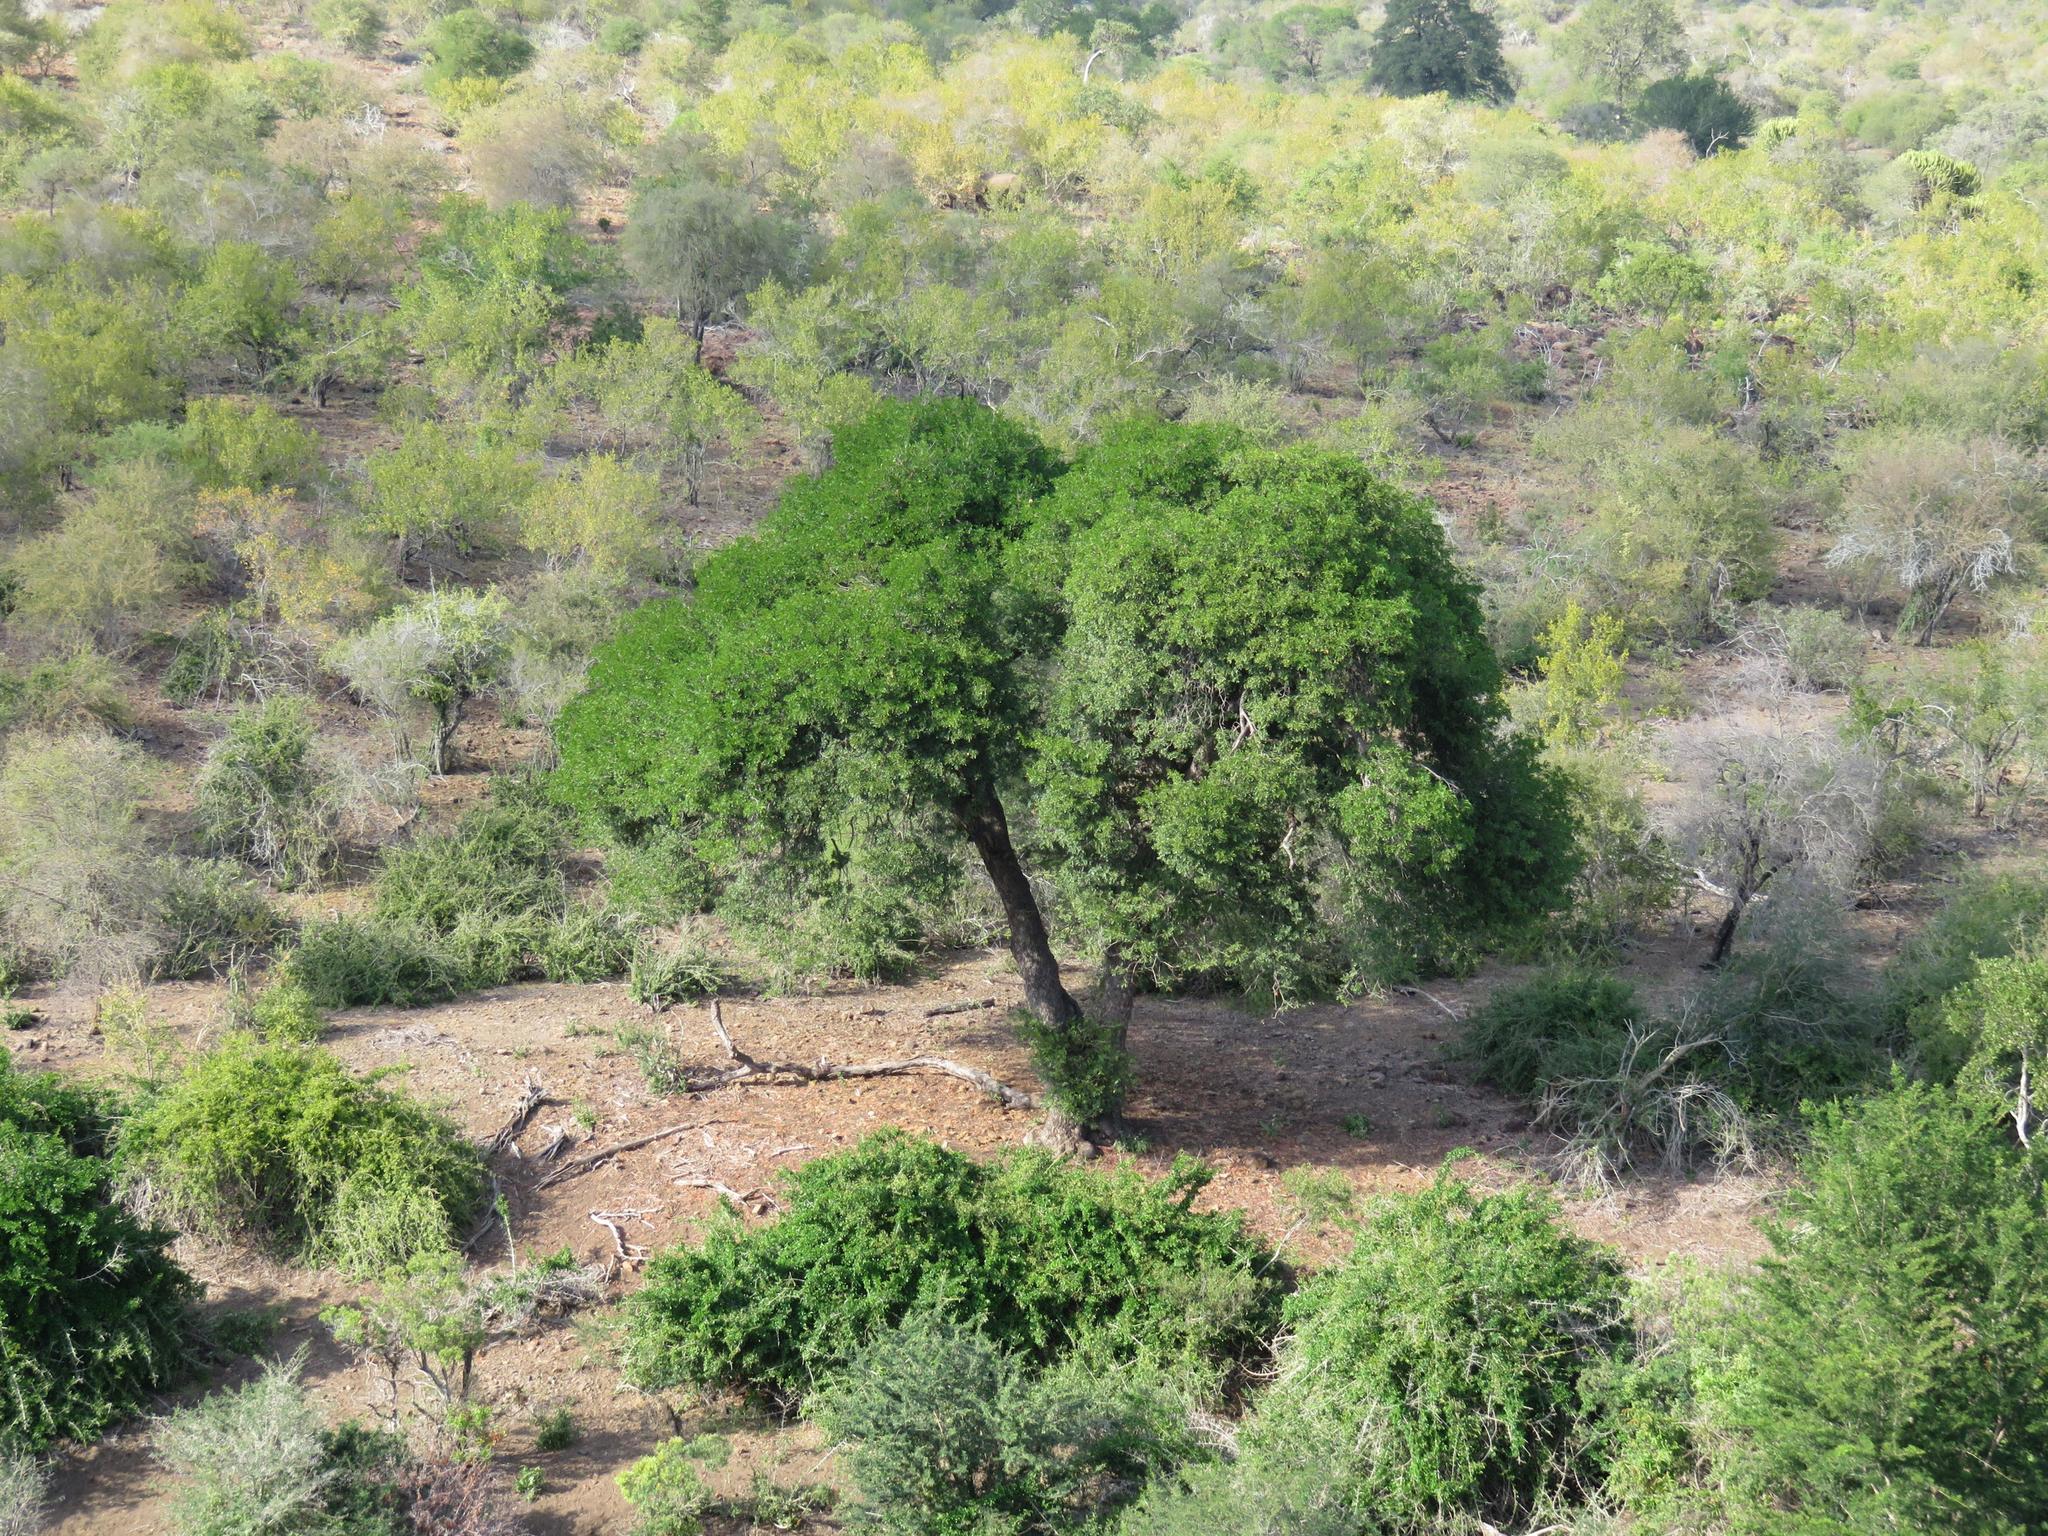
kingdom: Plantae
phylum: Tracheophyta
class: Magnoliopsida
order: Fabales
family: Fabaceae
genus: Schotia
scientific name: Schotia brachypetala
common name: Weeping boer-bean
